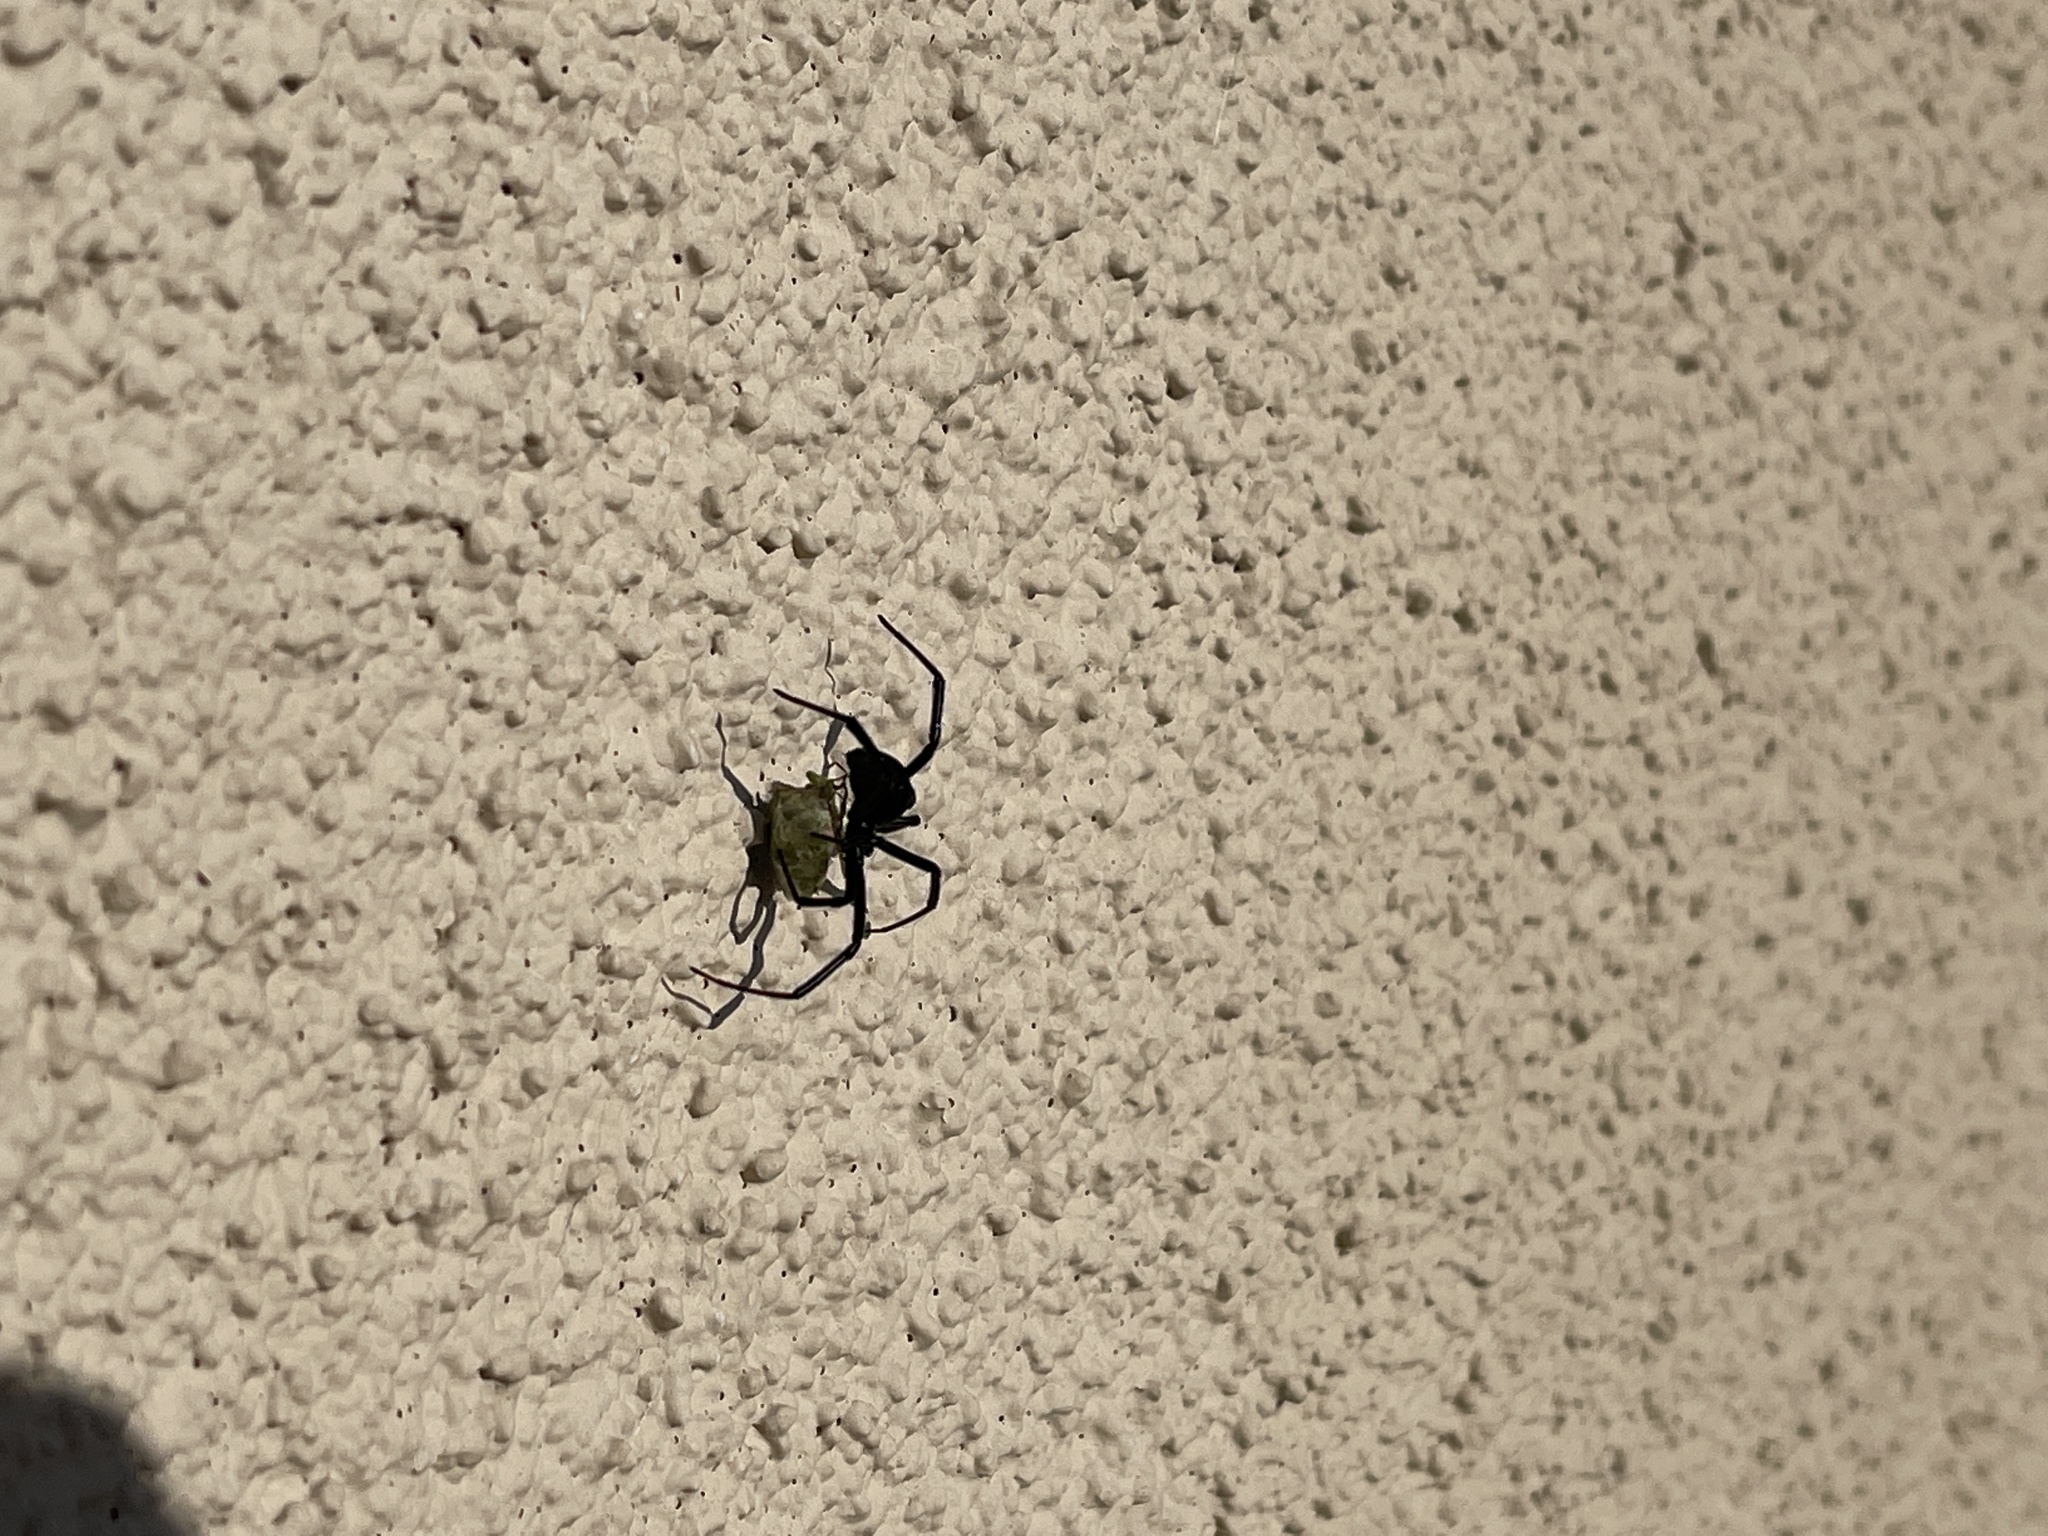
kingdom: Animalia
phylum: Arthropoda
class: Arachnida
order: Araneae
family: Theridiidae
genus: Latrodectus
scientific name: Latrodectus hesperus
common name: Western black widow
